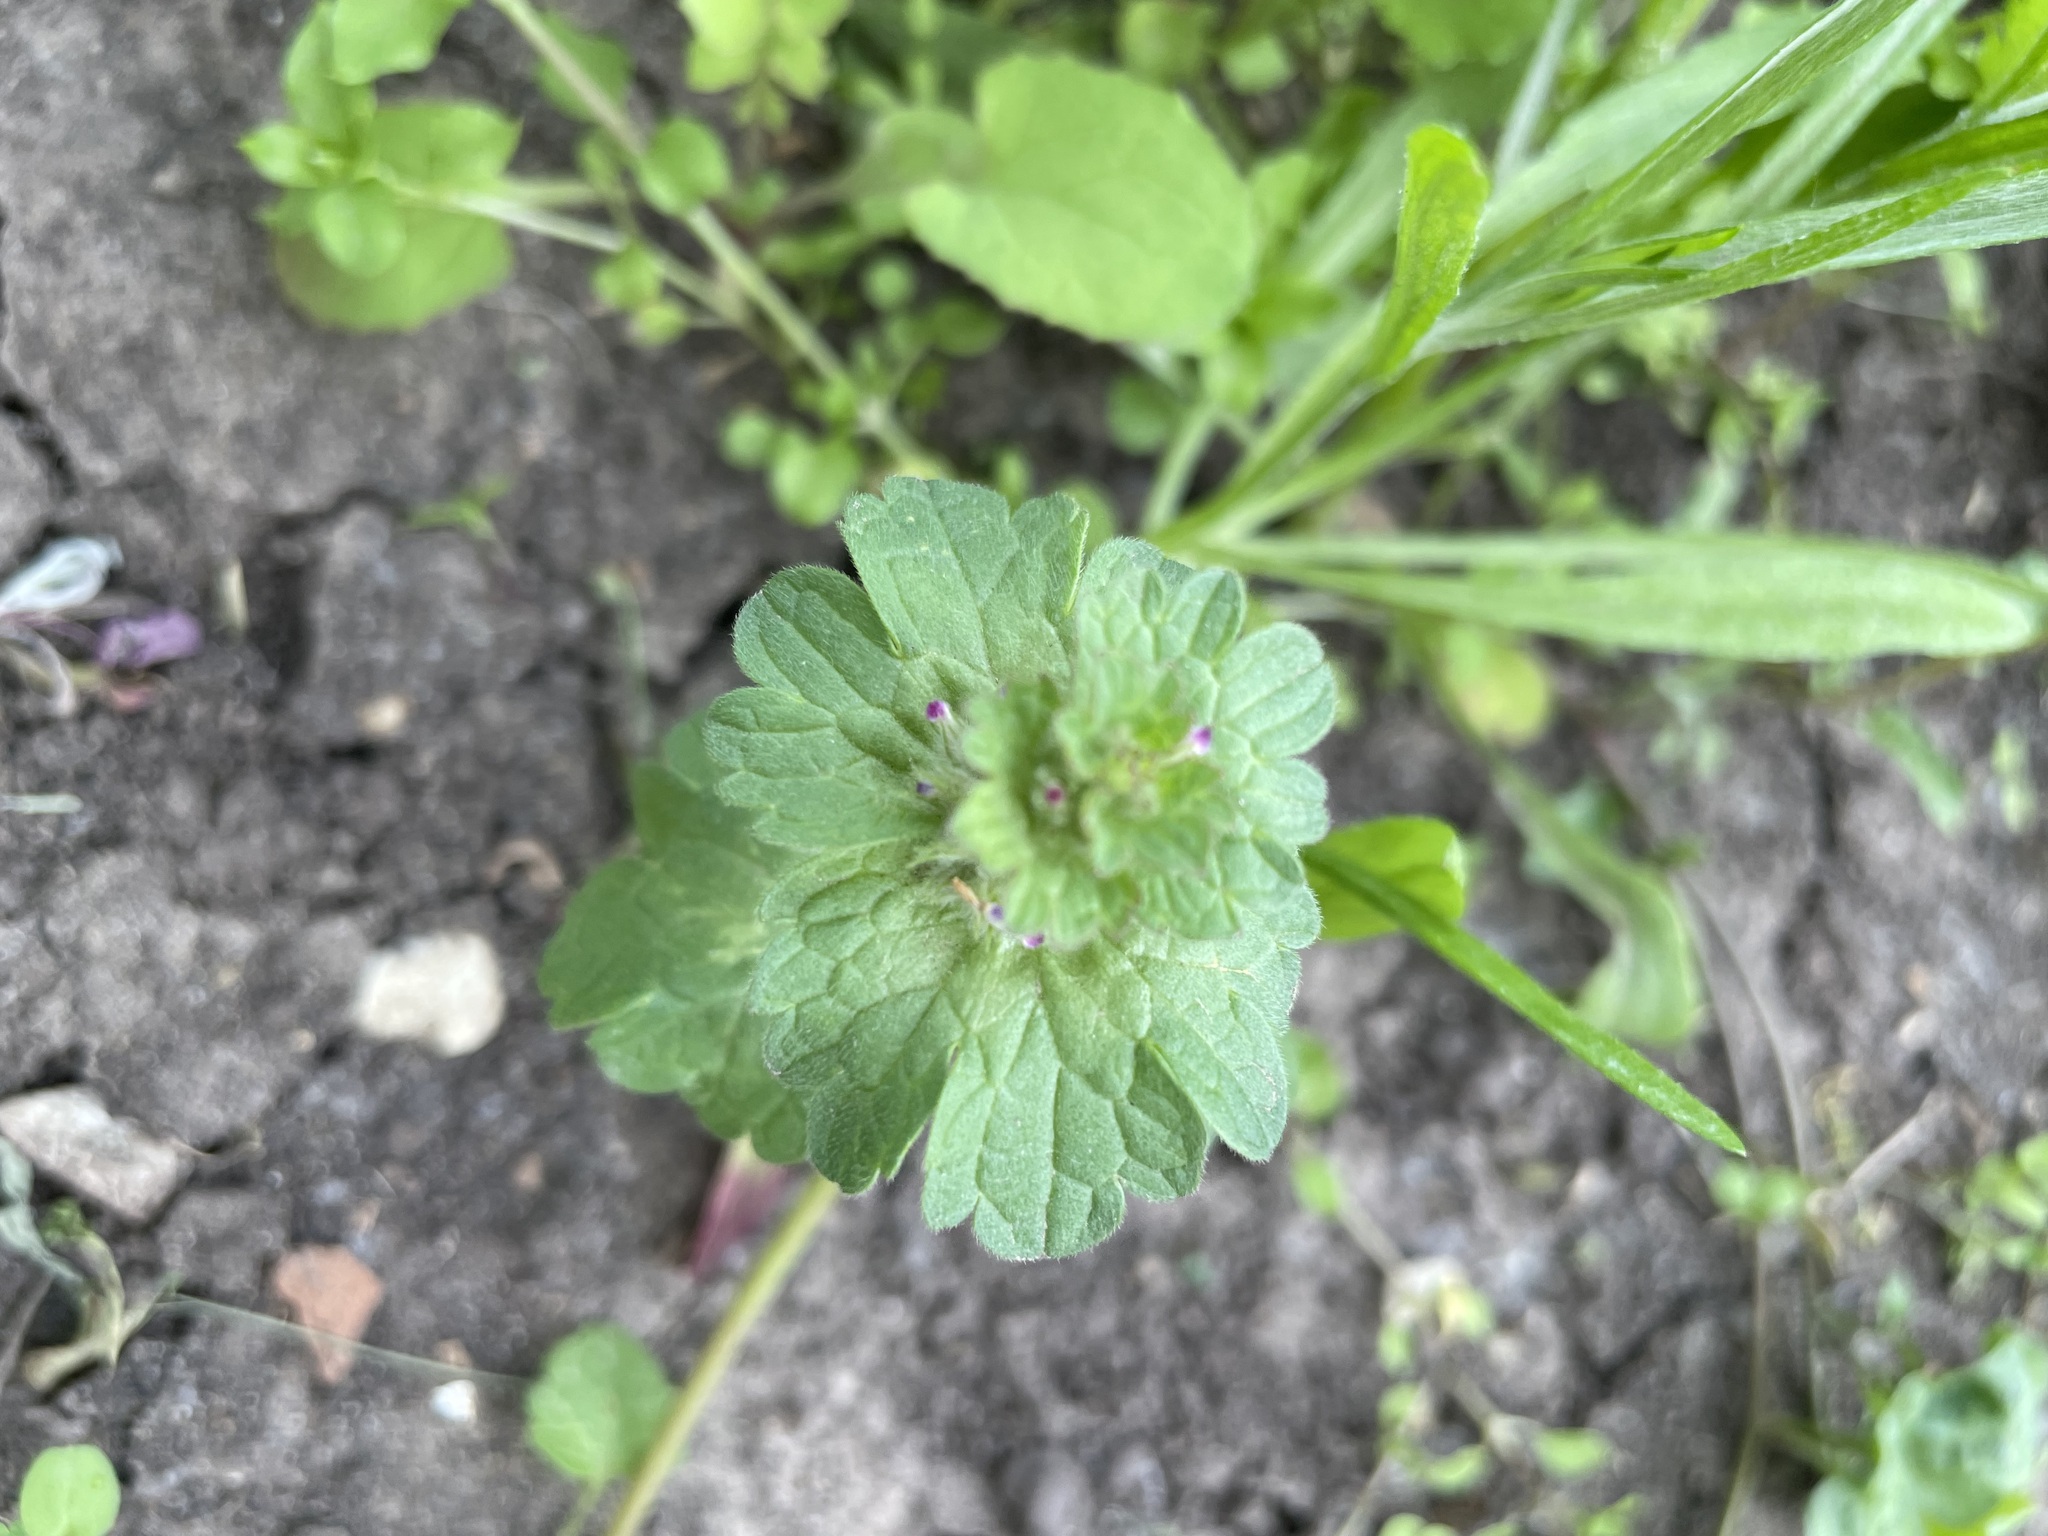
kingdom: Plantae
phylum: Tracheophyta
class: Magnoliopsida
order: Lamiales
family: Lamiaceae
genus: Lamium
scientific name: Lamium amplexicaule
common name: Henbit dead-nettle
